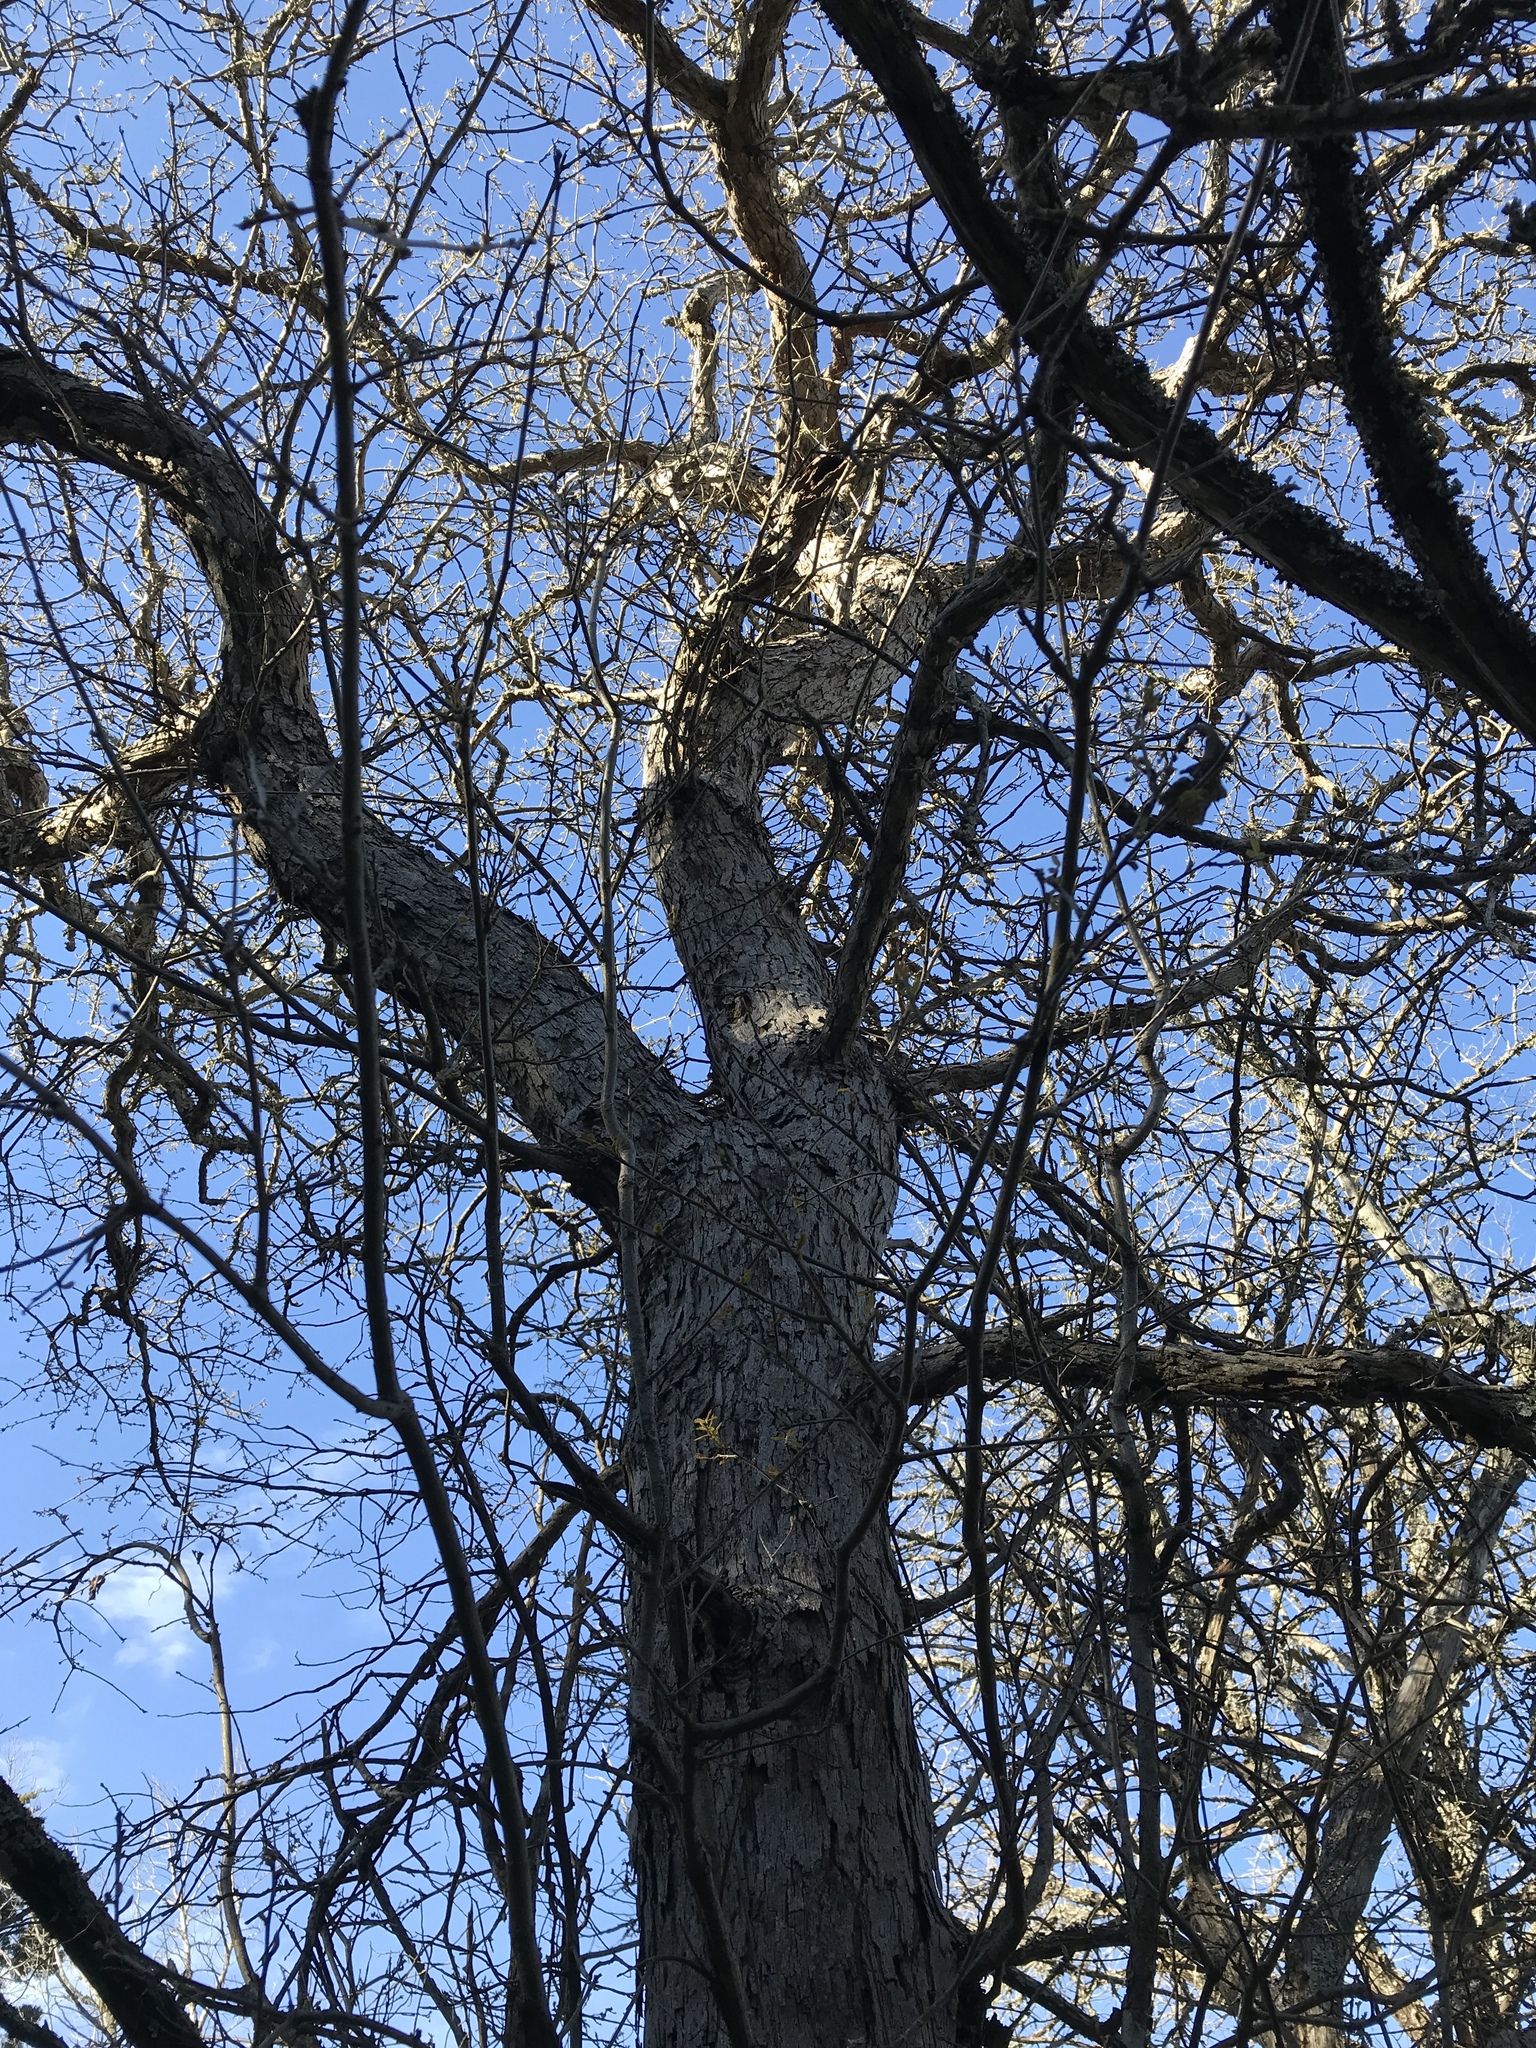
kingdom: Plantae
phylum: Tracheophyta
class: Magnoliopsida
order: Fagales
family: Fagaceae
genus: Quercus
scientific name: Quercus sinuata
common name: Durand oak
